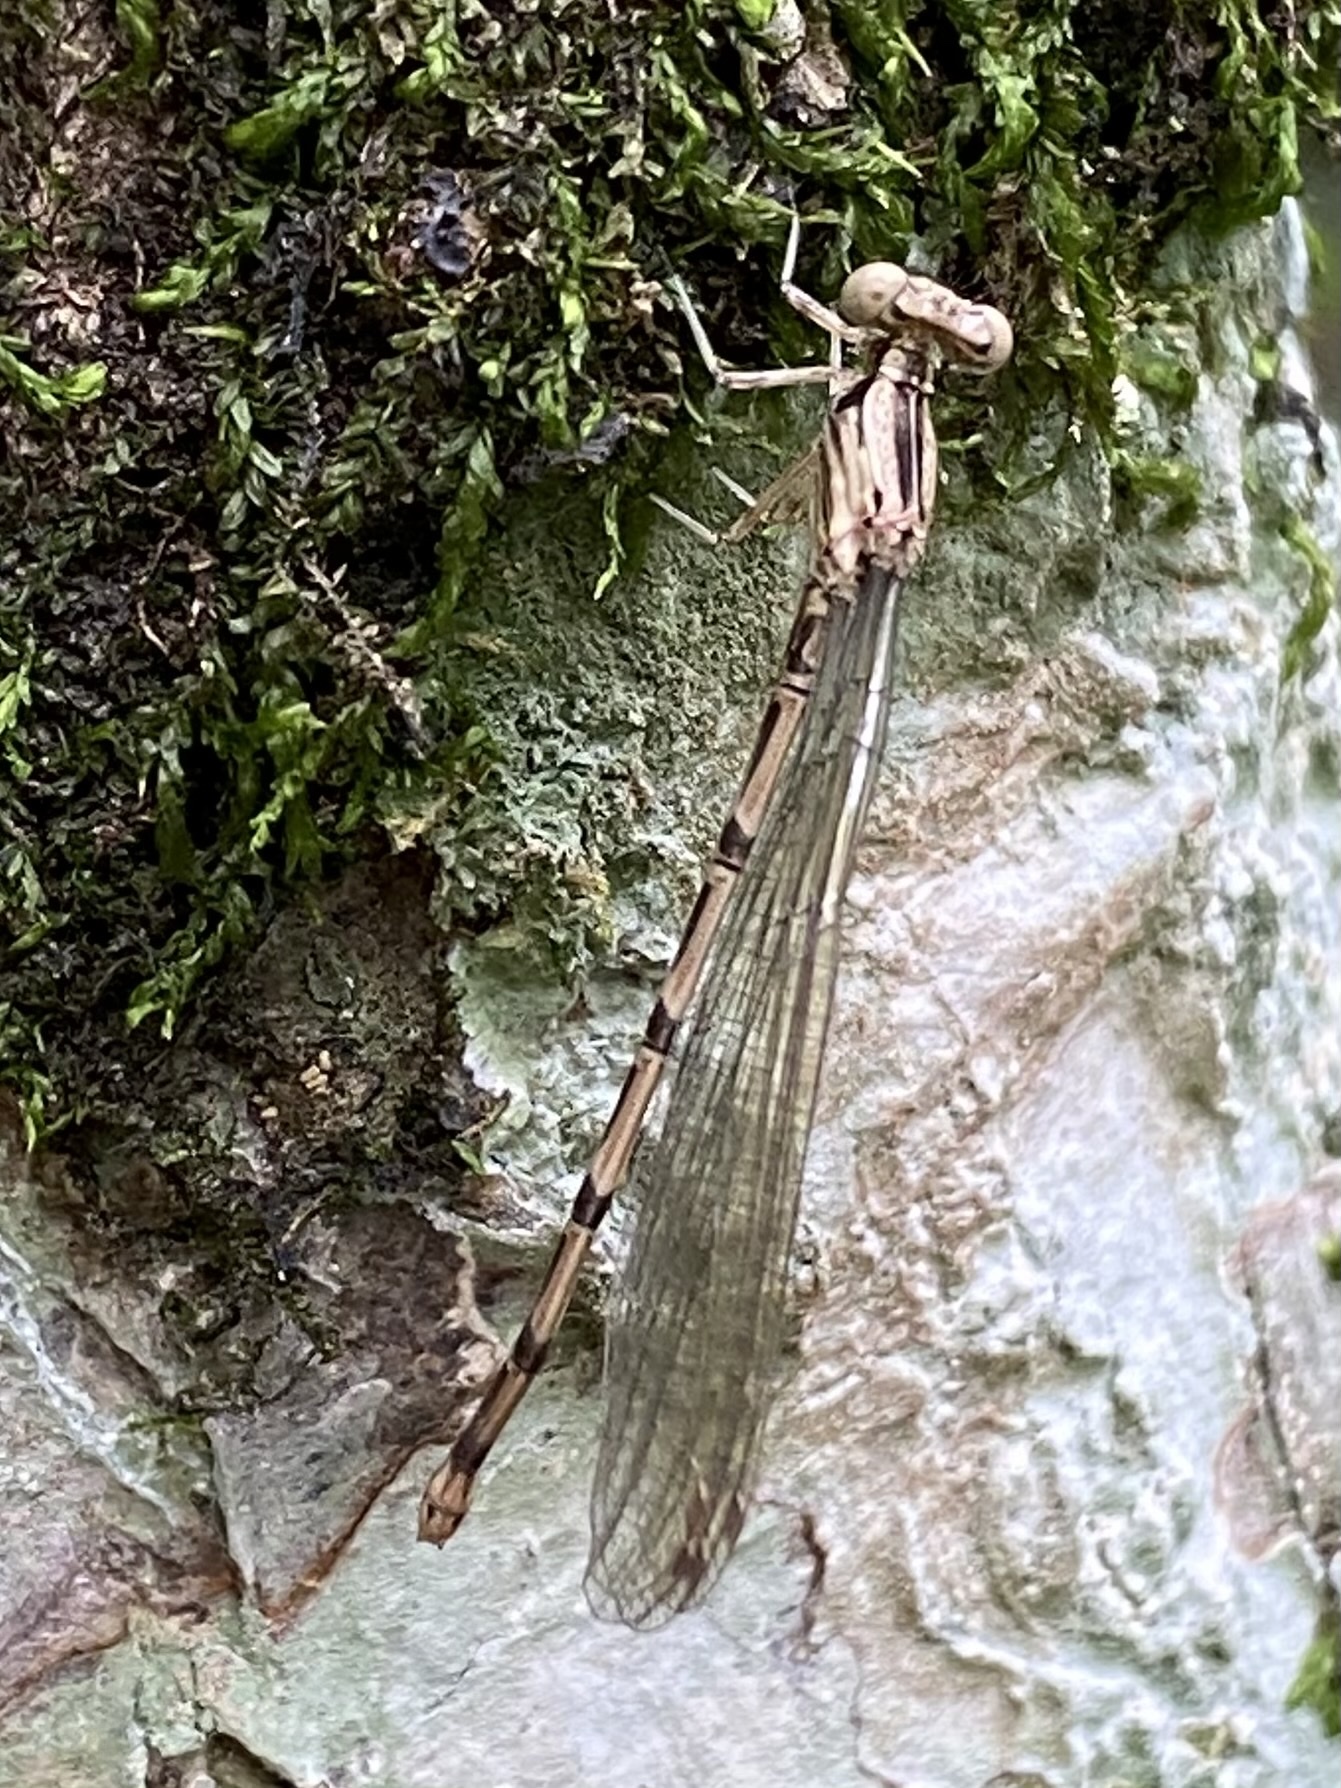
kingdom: Animalia
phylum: Arthropoda
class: Insecta
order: Odonata
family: Coenagrionidae
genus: Argia
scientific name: Argia elongata
